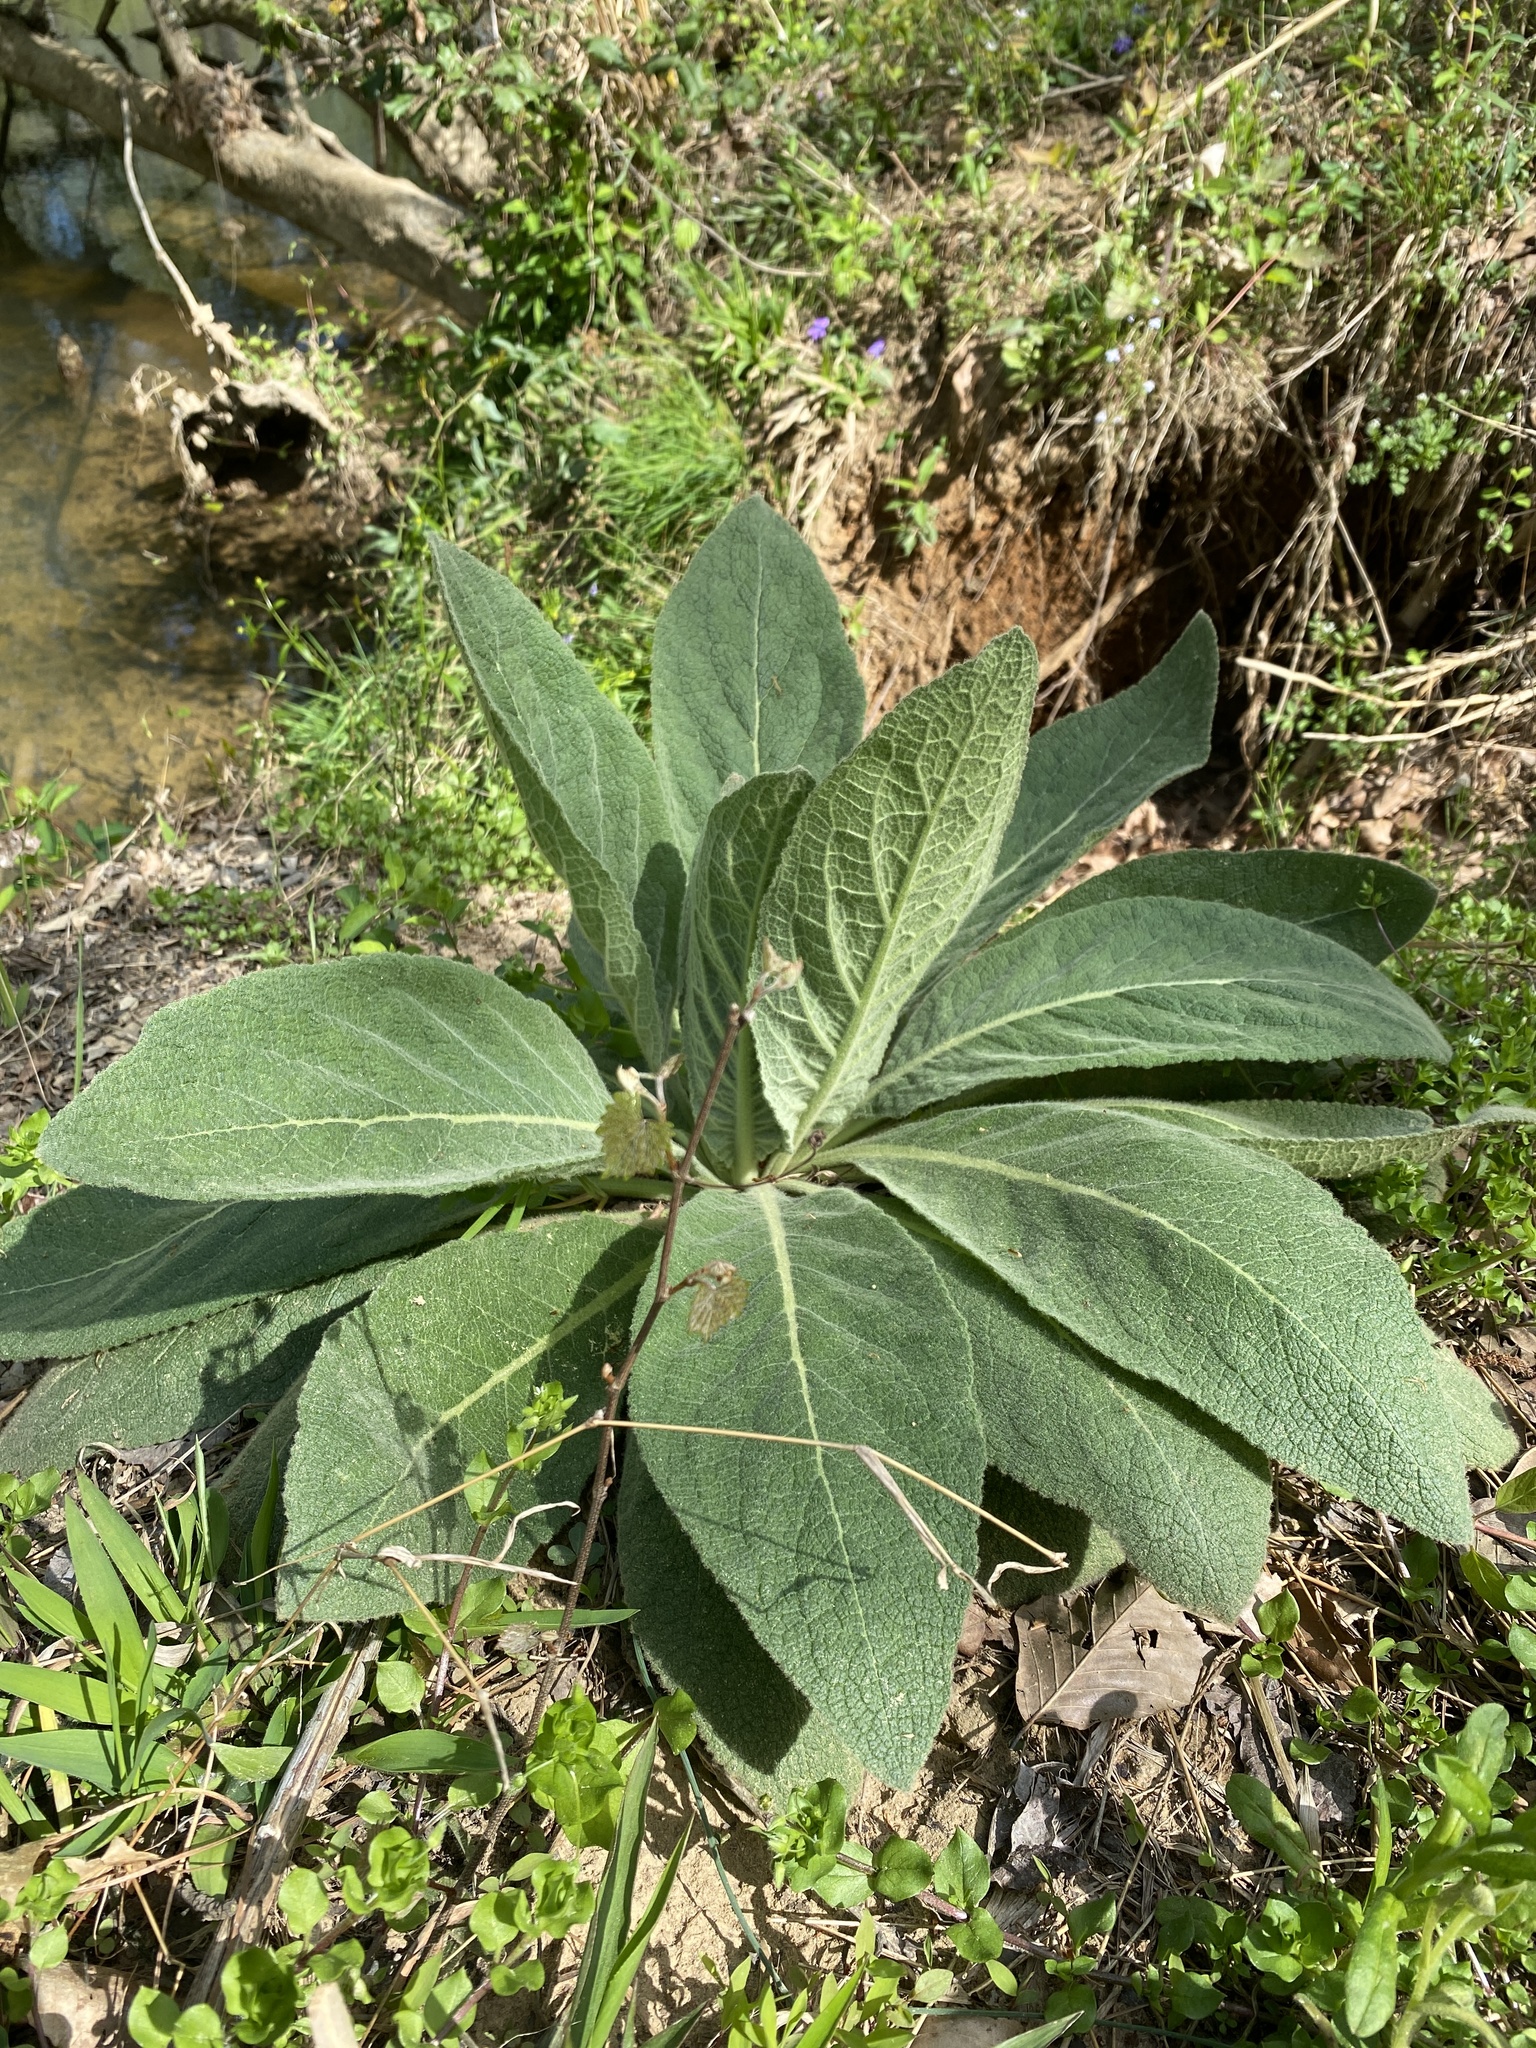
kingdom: Plantae
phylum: Tracheophyta
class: Magnoliopsida
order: Lamiales
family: Scrophulariaceae
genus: Verbascum
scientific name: Verbascum thapsus
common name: Common mullein
